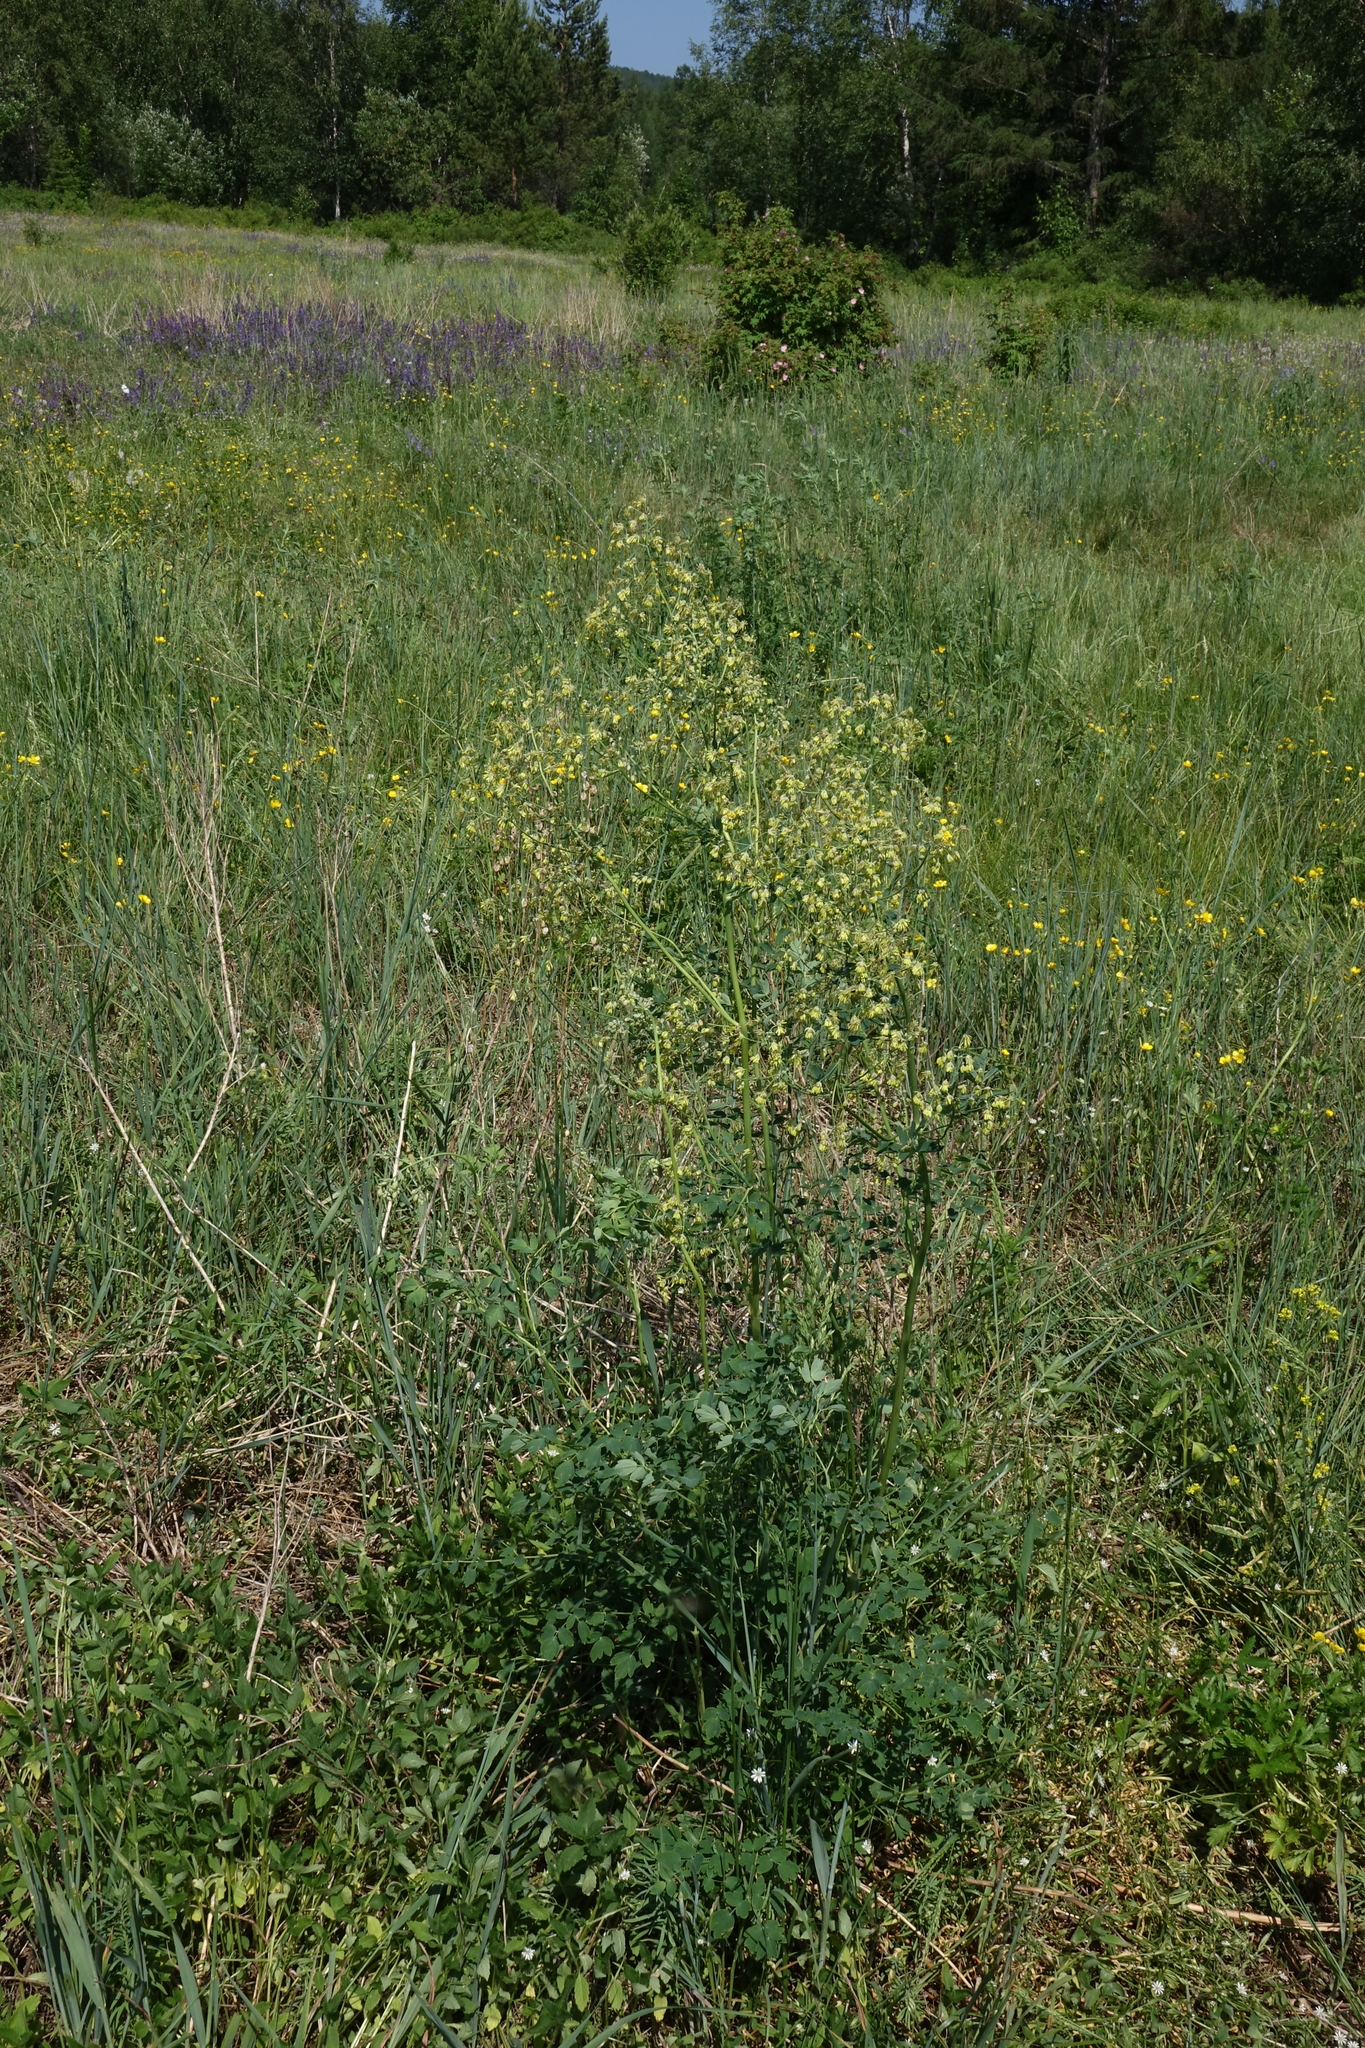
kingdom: Plantae
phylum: Tracheophyta
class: Magnoliopsida
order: Ranunculales
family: Ranunculaceae
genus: Thalictrum
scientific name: Thalictrum minus
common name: Lesser meadow-rue
